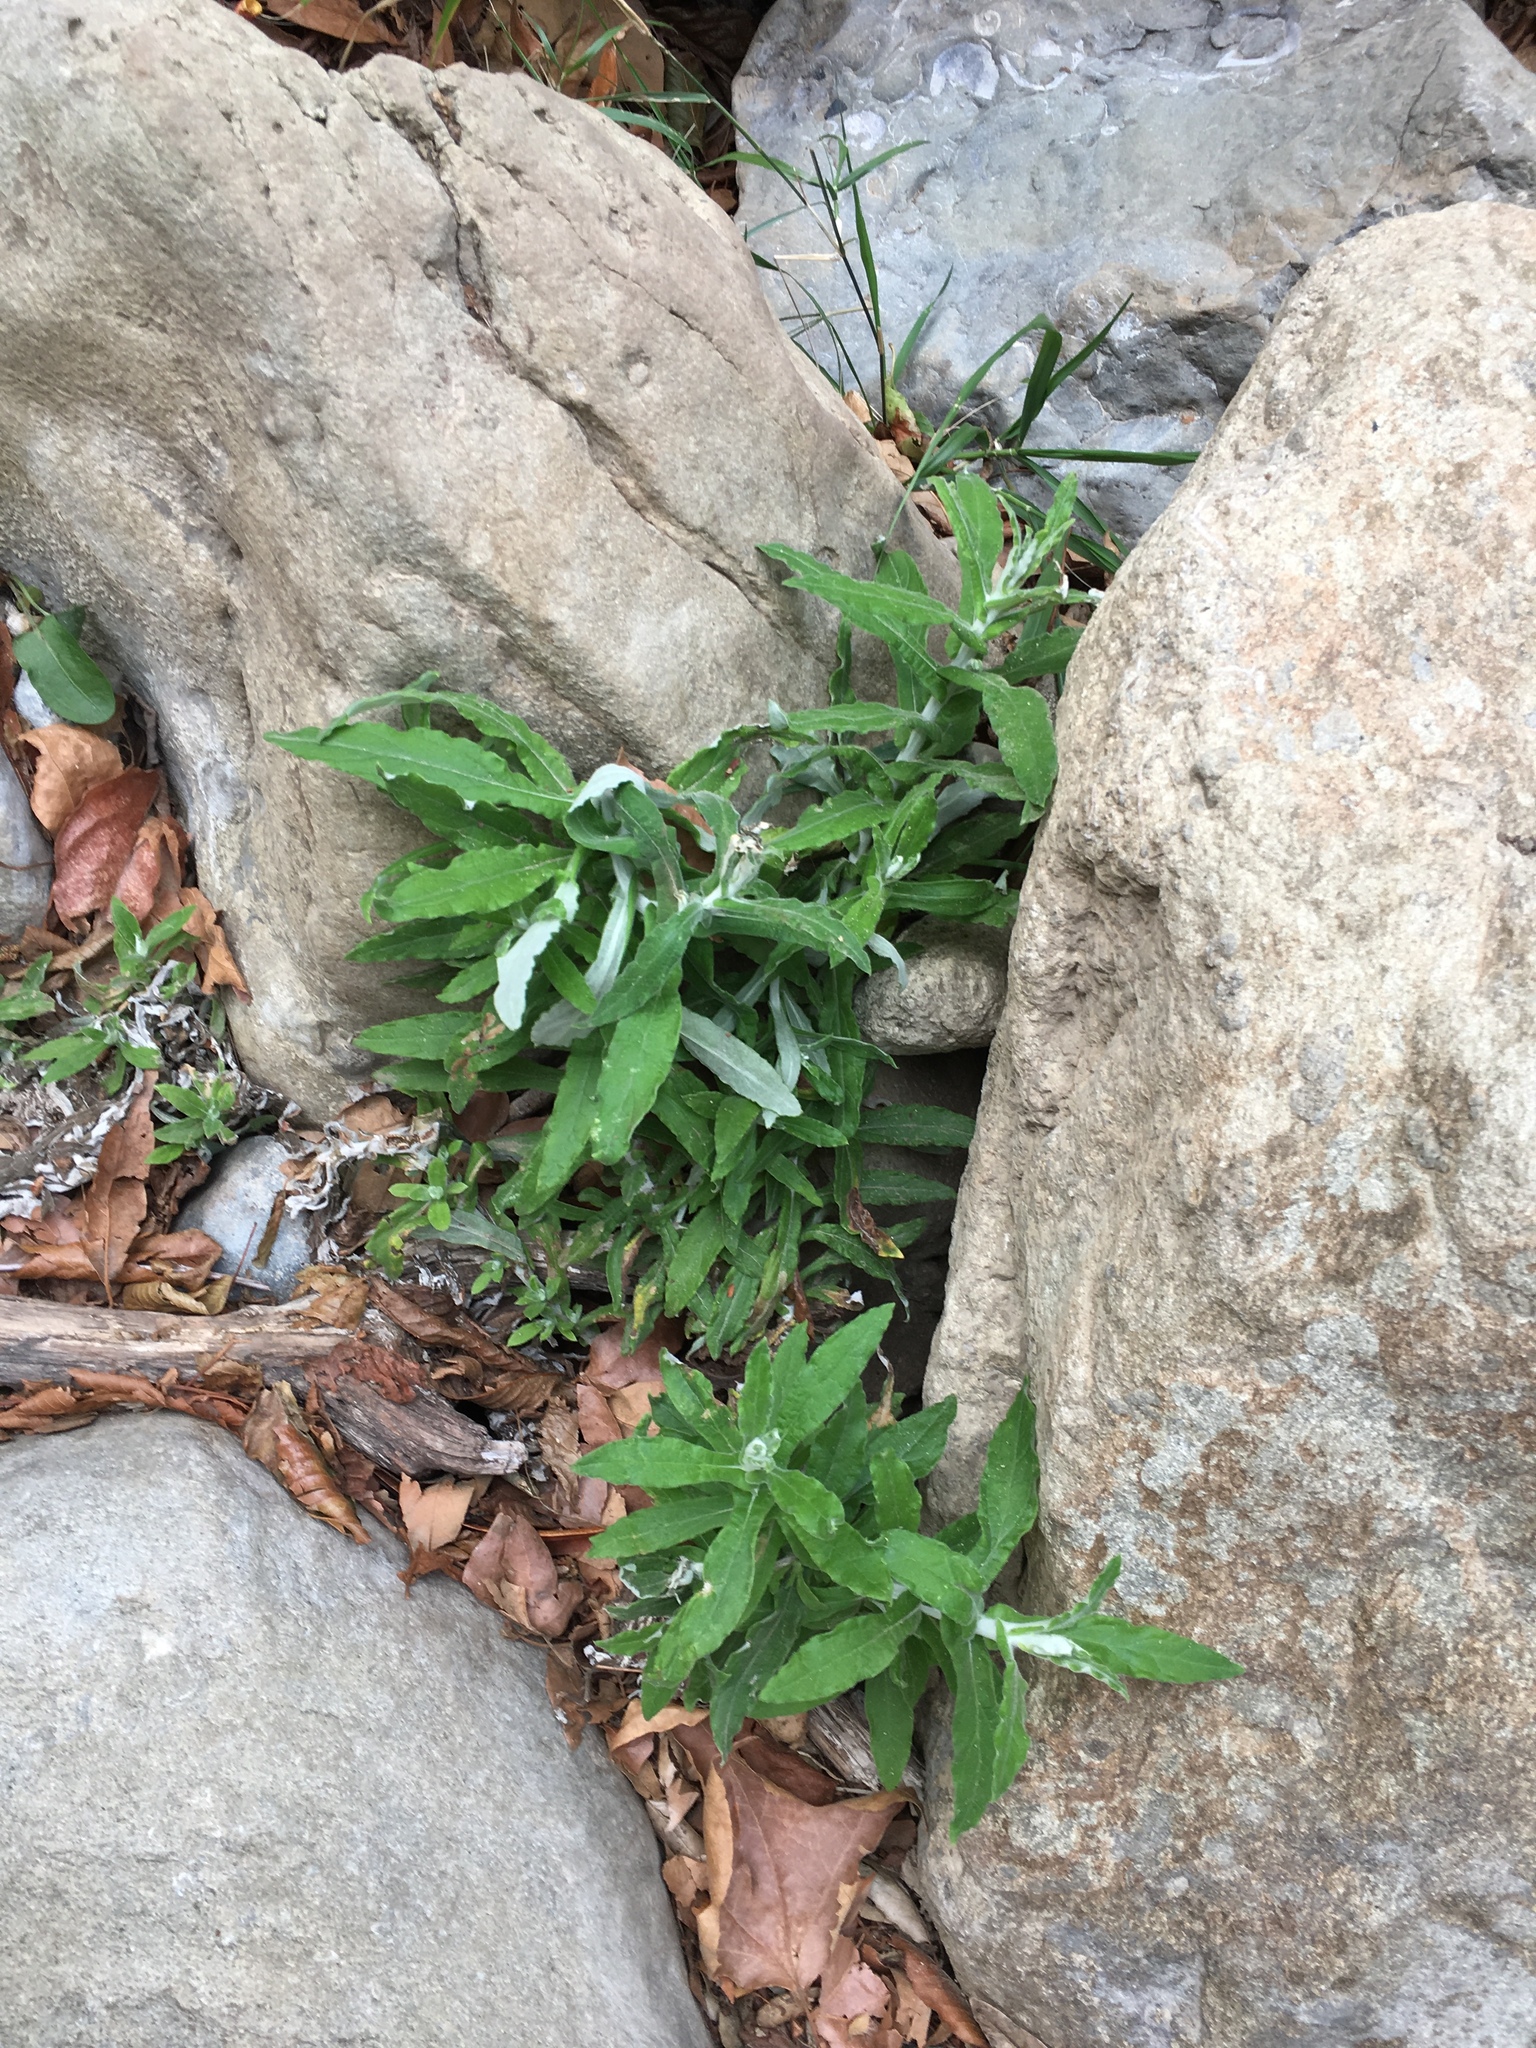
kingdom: Plantae
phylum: Tracheophyta
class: Magnoliopsida
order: Asterales
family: Asteraceae
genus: Pseudognaphalium
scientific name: Pseudognaphalium biolettii
